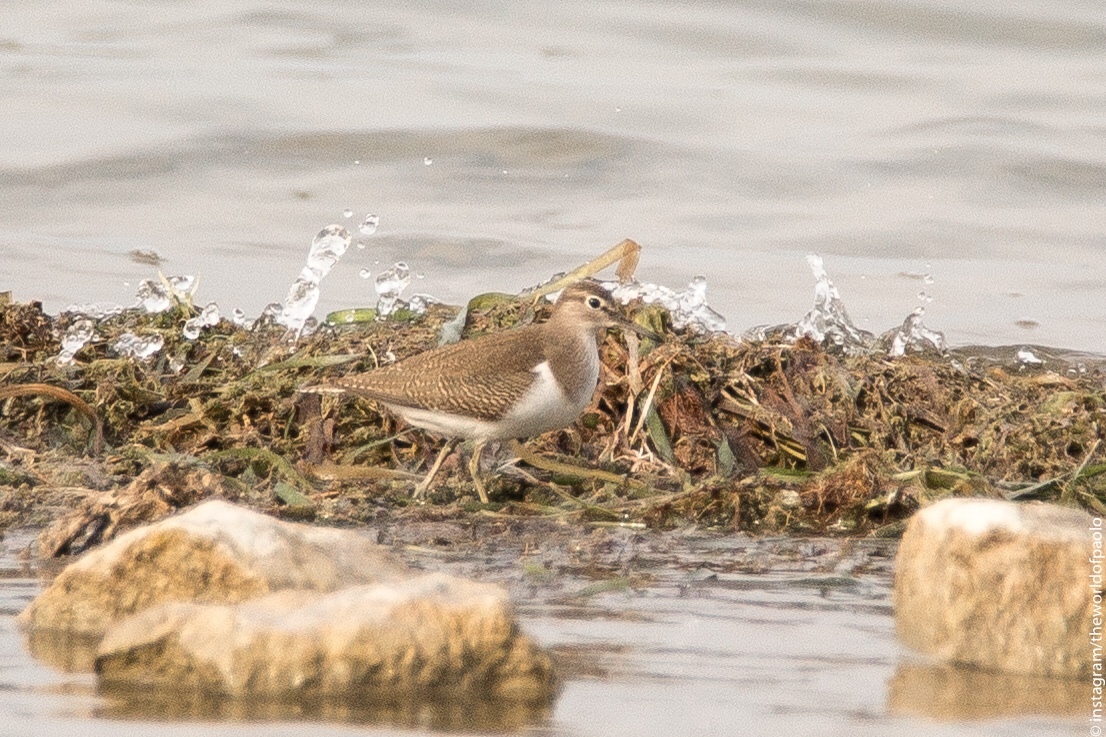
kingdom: Animalia
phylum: Chordata
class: Aves
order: Charadriiformes
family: Scolopacidae
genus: Actitis
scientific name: Actitis hypoleucos
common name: Common sandpiper
